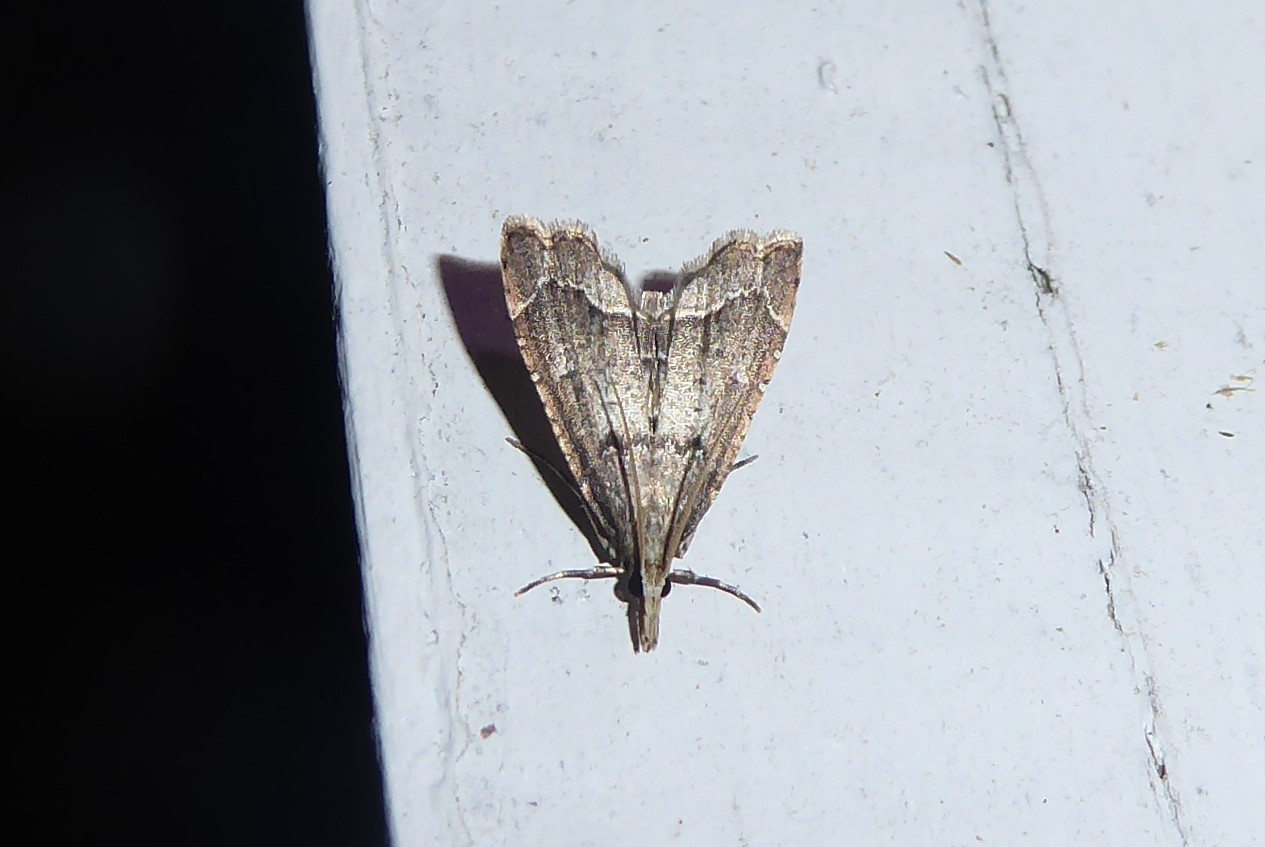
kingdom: Animalia
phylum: Arthropoda
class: Insecta
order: Lepidoptera
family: Crambidae
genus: Diplopseustis
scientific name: Diplopseustis perieresalis
